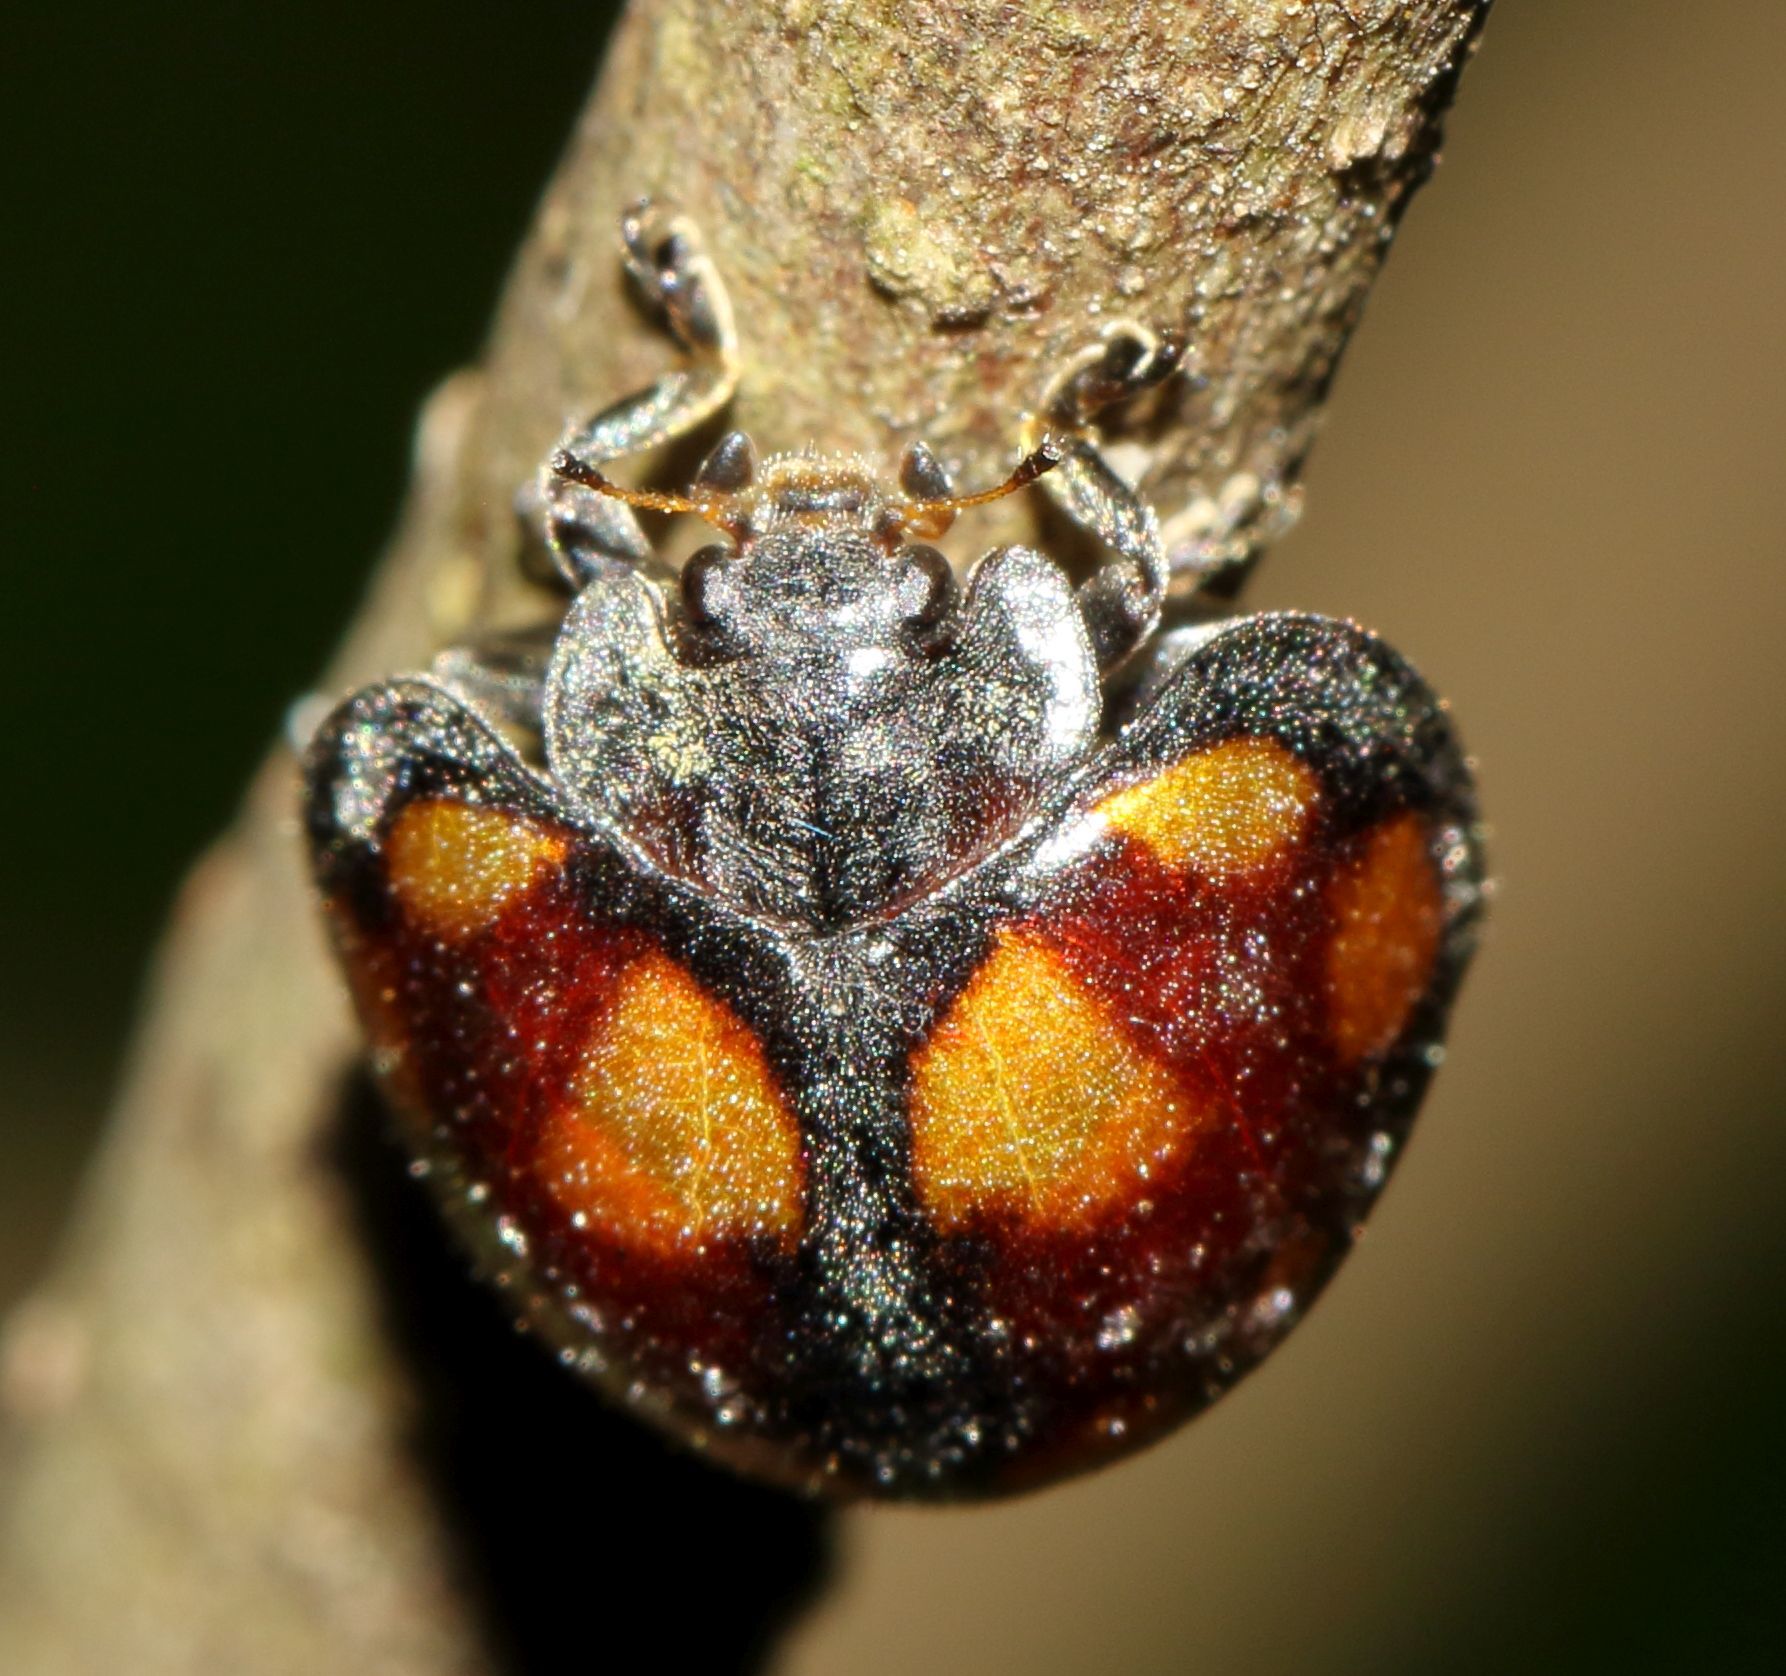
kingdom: Animalia
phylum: Arthropoda
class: Insecta
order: Coleoptera
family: Coccinellidae
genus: Chnootriba
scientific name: Chnootriba
